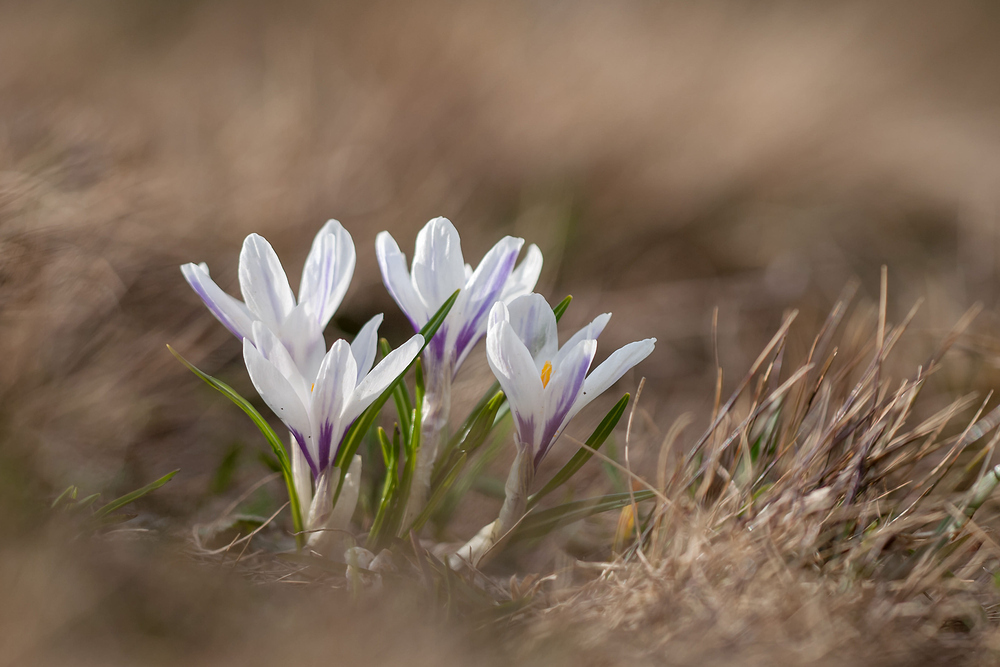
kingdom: Plantae
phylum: Tracheophyta
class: Liliopsida
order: Asparagales
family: Iridaceae
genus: Crocus
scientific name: Crocus vernus
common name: Spring crocus
